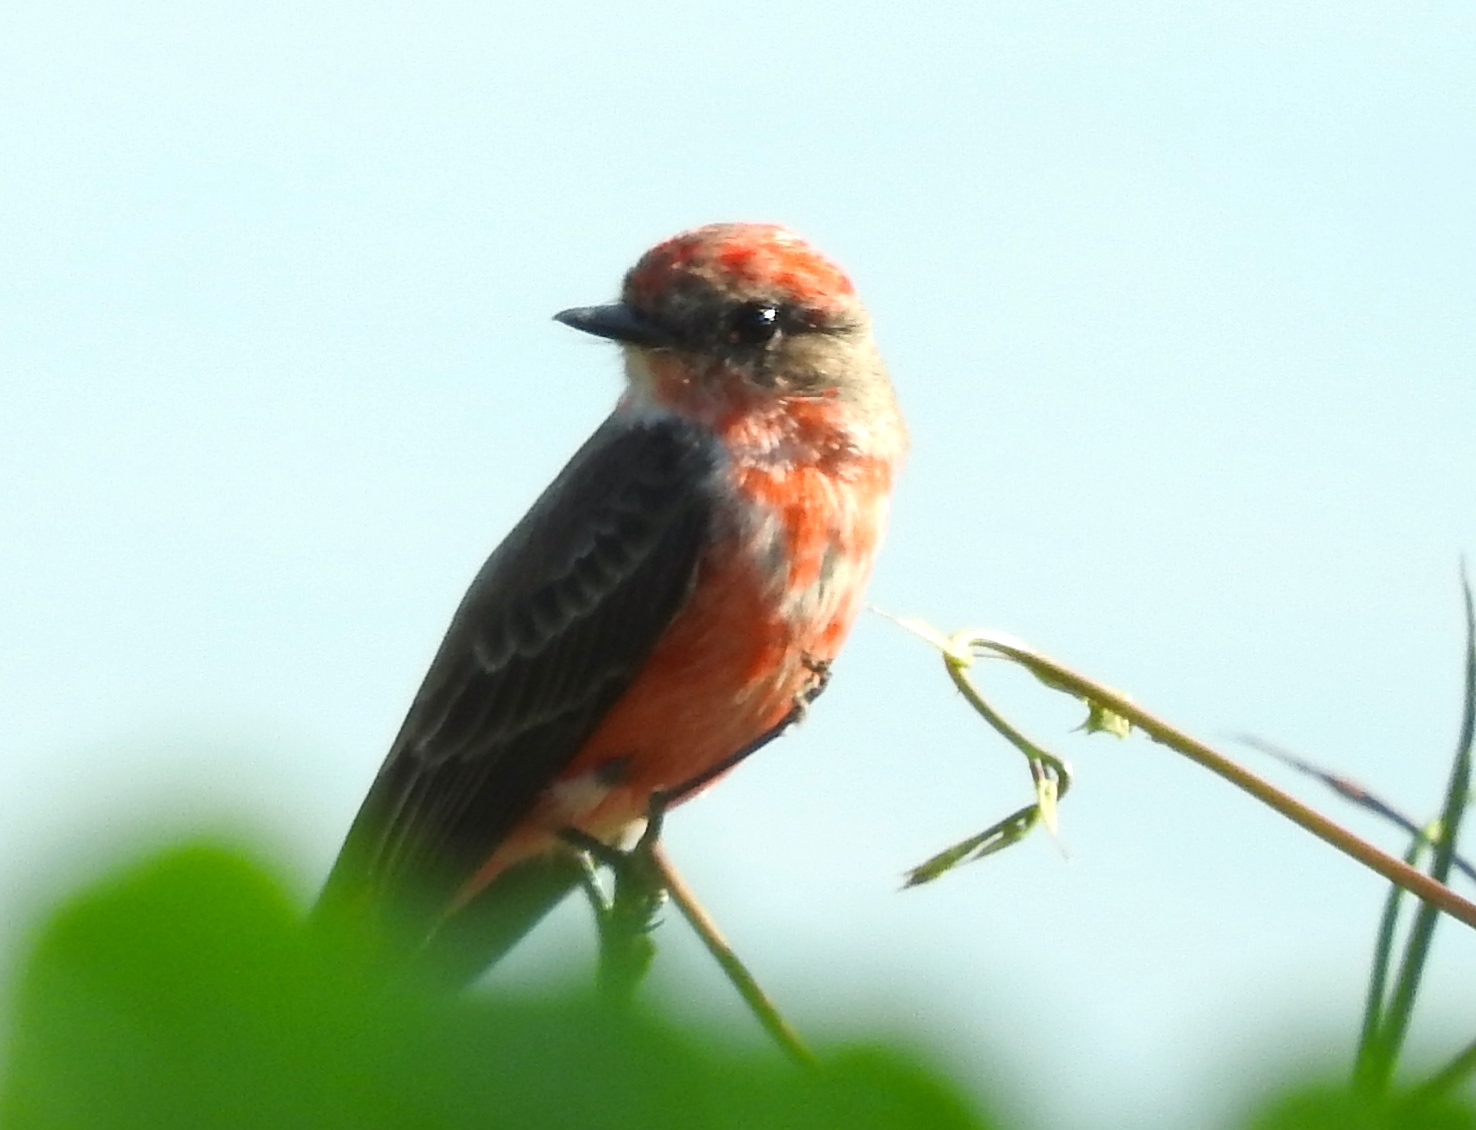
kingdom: Animalia
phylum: Chordata
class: Aves
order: Passeriformes
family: Tyrannidae
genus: Pyrocephalus
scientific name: Pyrocephalus rubinus
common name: Vermilion flycatcher
